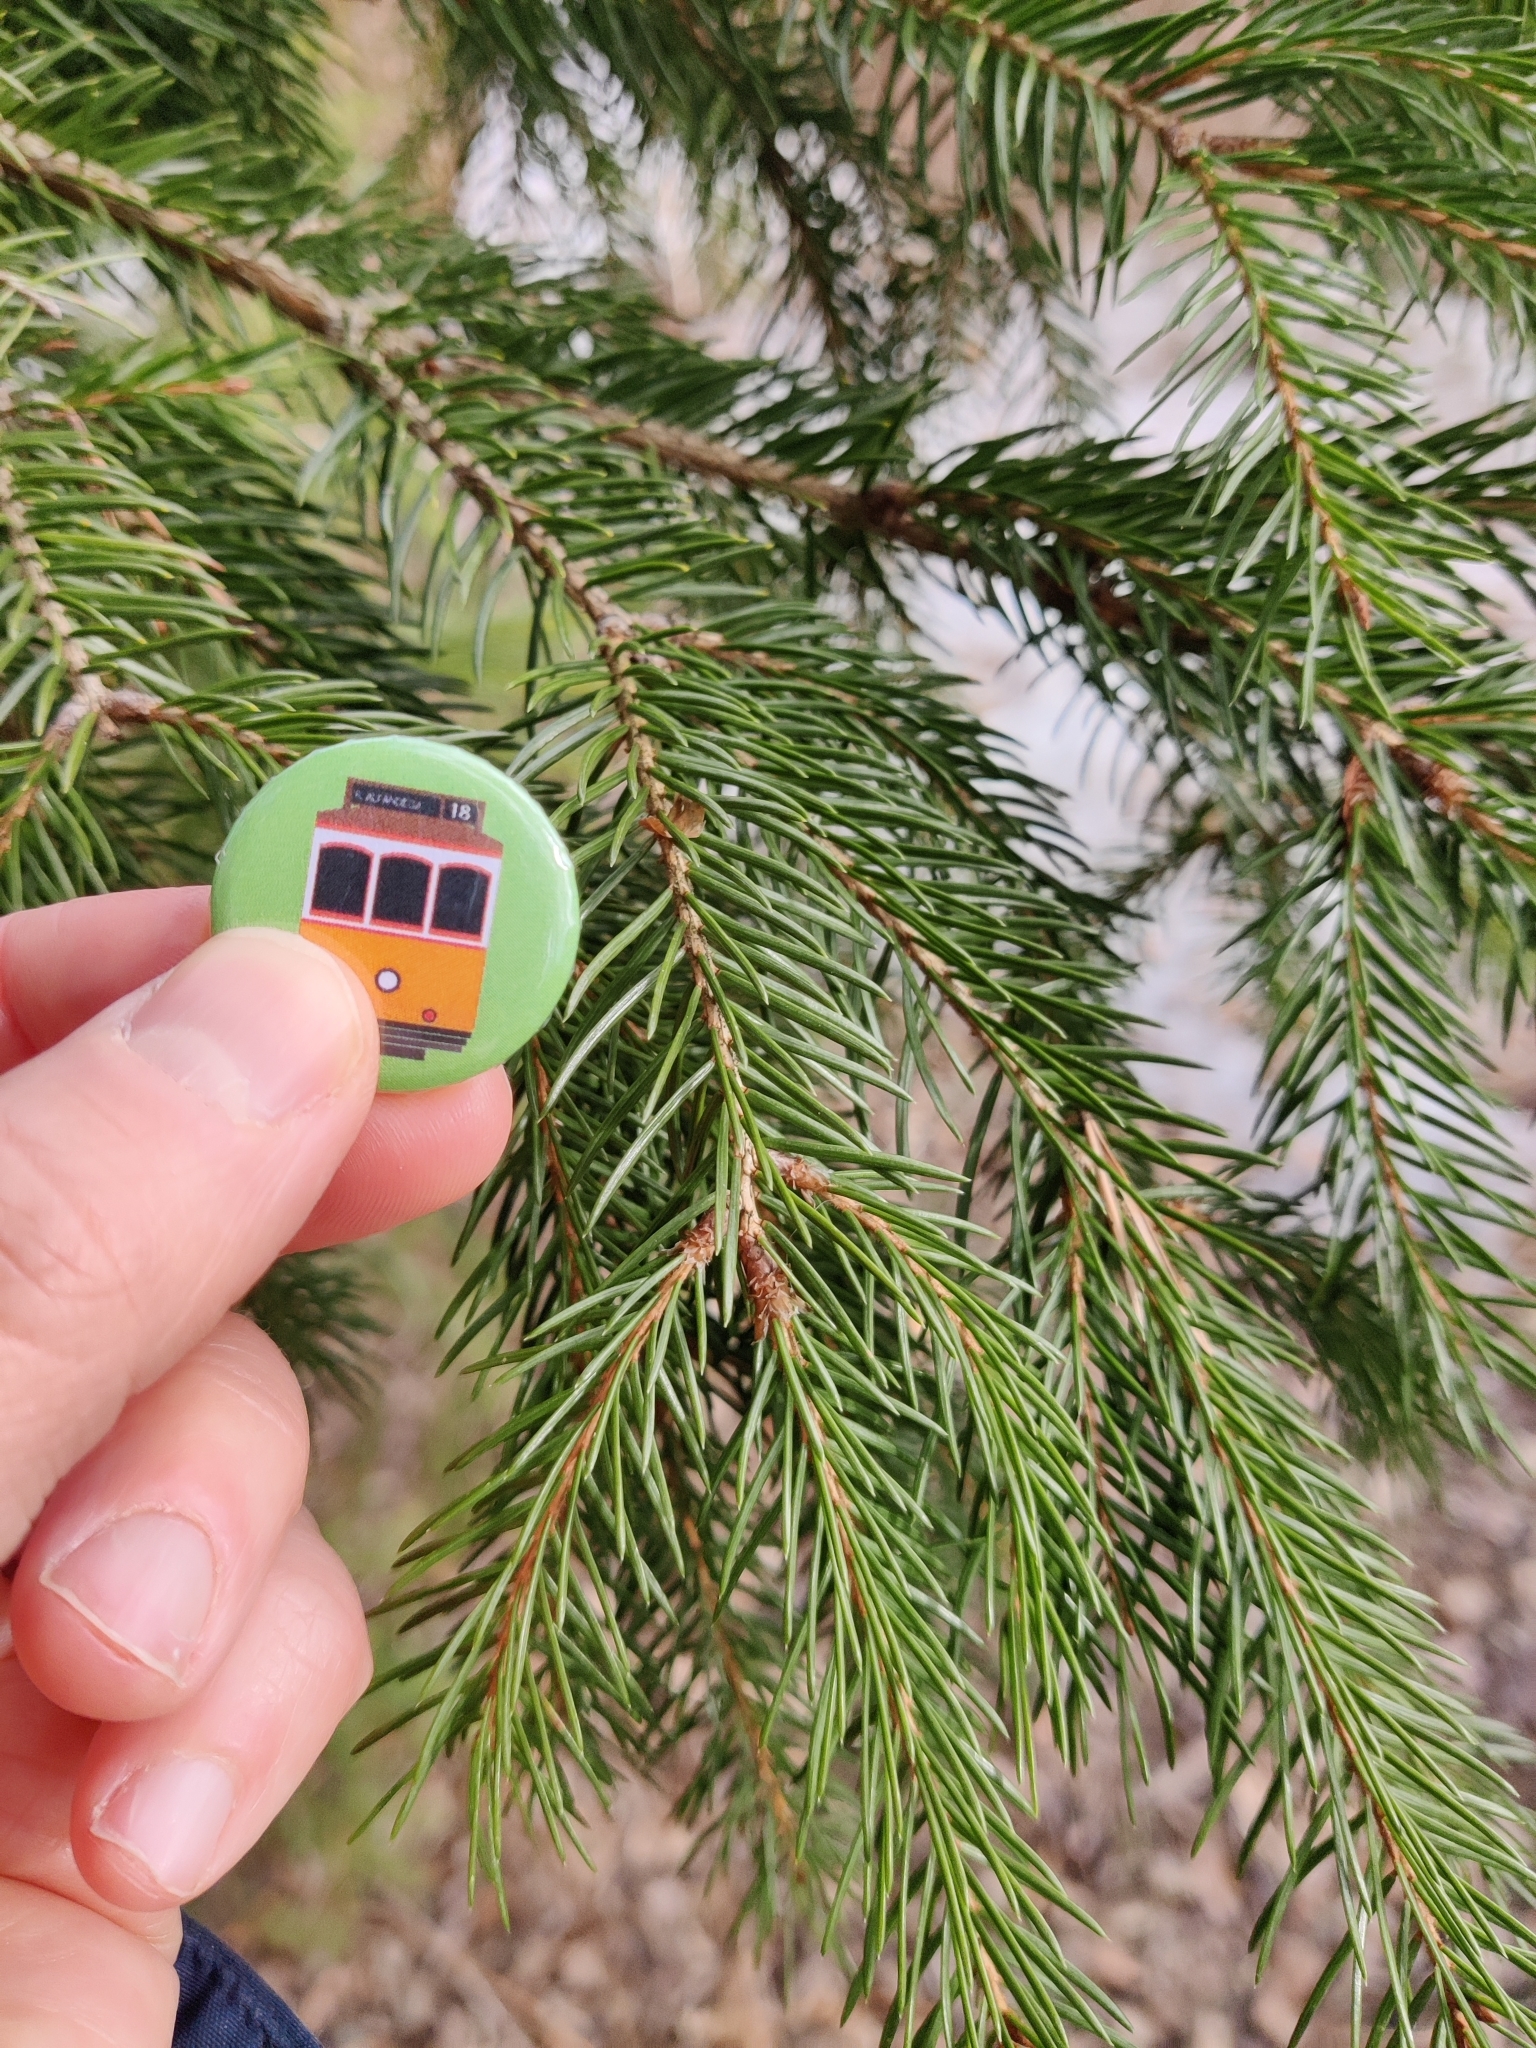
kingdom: Plantae
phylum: Tracheophyta
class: Pinopsida
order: Pinales
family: Pinaceae
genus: Picea
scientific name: Picea fennica
